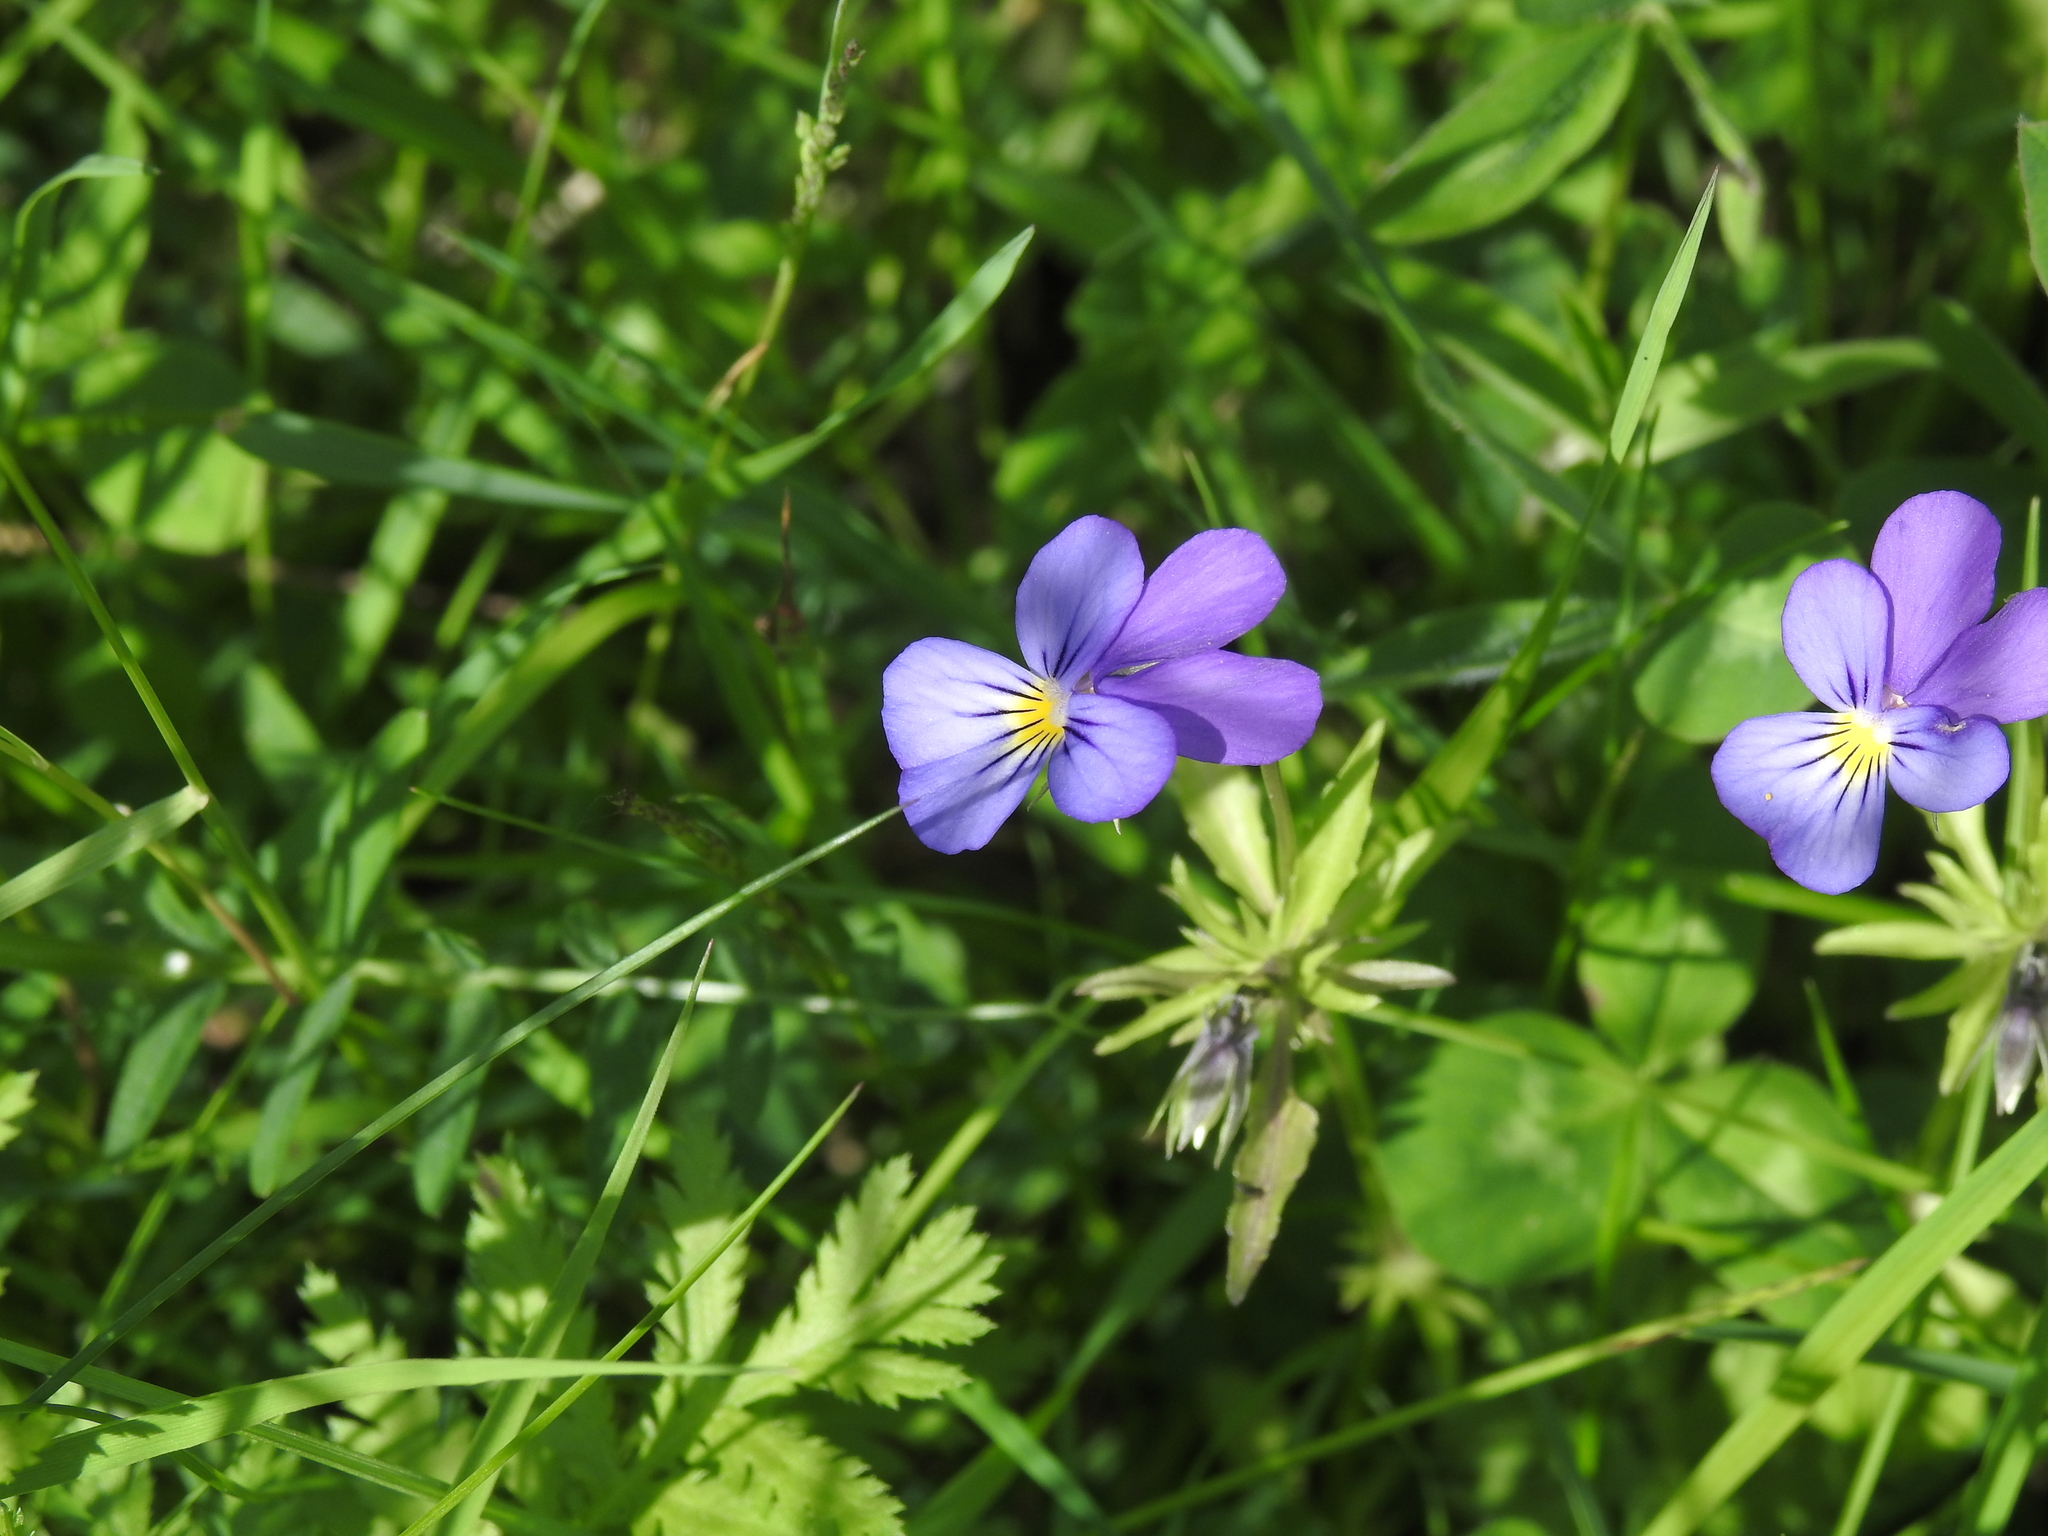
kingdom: Plantae
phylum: Tracheophyta
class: Magnoliopsida
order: Malpighiales
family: Violaceae
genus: Viola
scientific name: Viola tricolor
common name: Pansy
